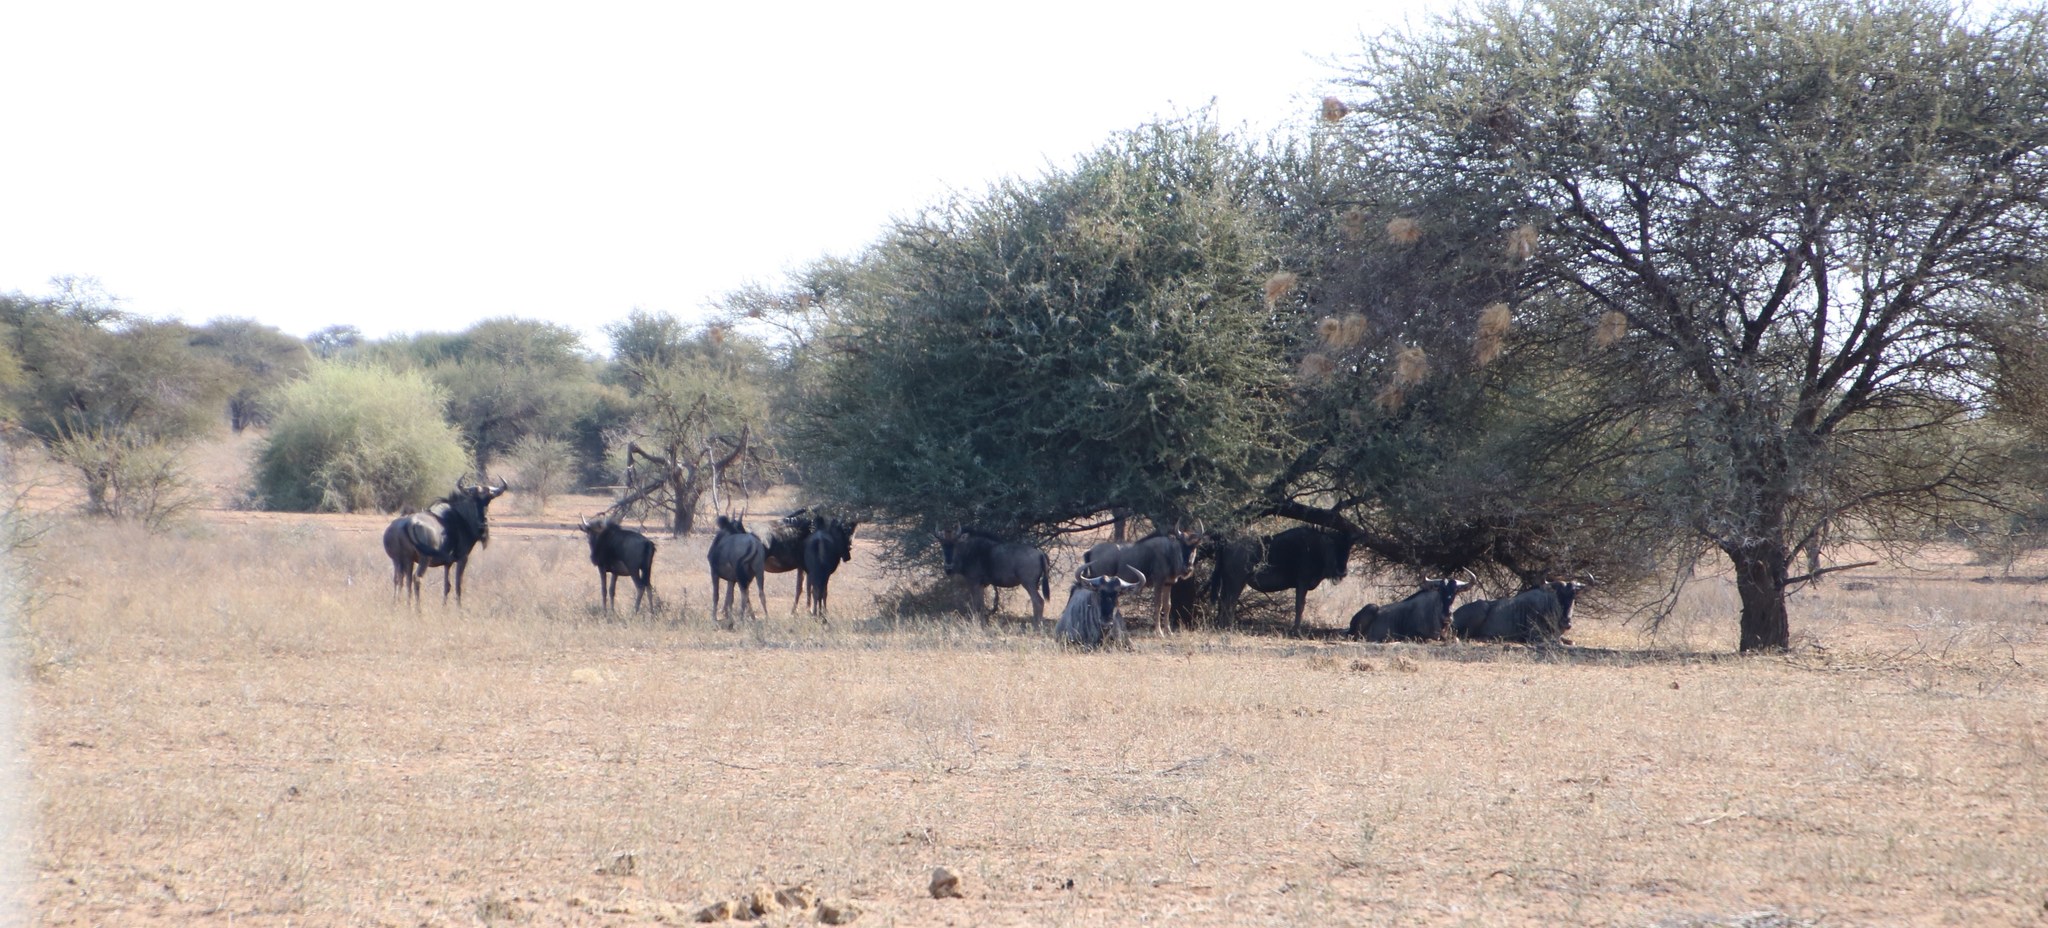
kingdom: Animalia
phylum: Chordata
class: Mammalia
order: Artiodactyla
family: Bovidae
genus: Connochaetes
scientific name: Connochaetes taurinus
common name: Blue wildebeest
